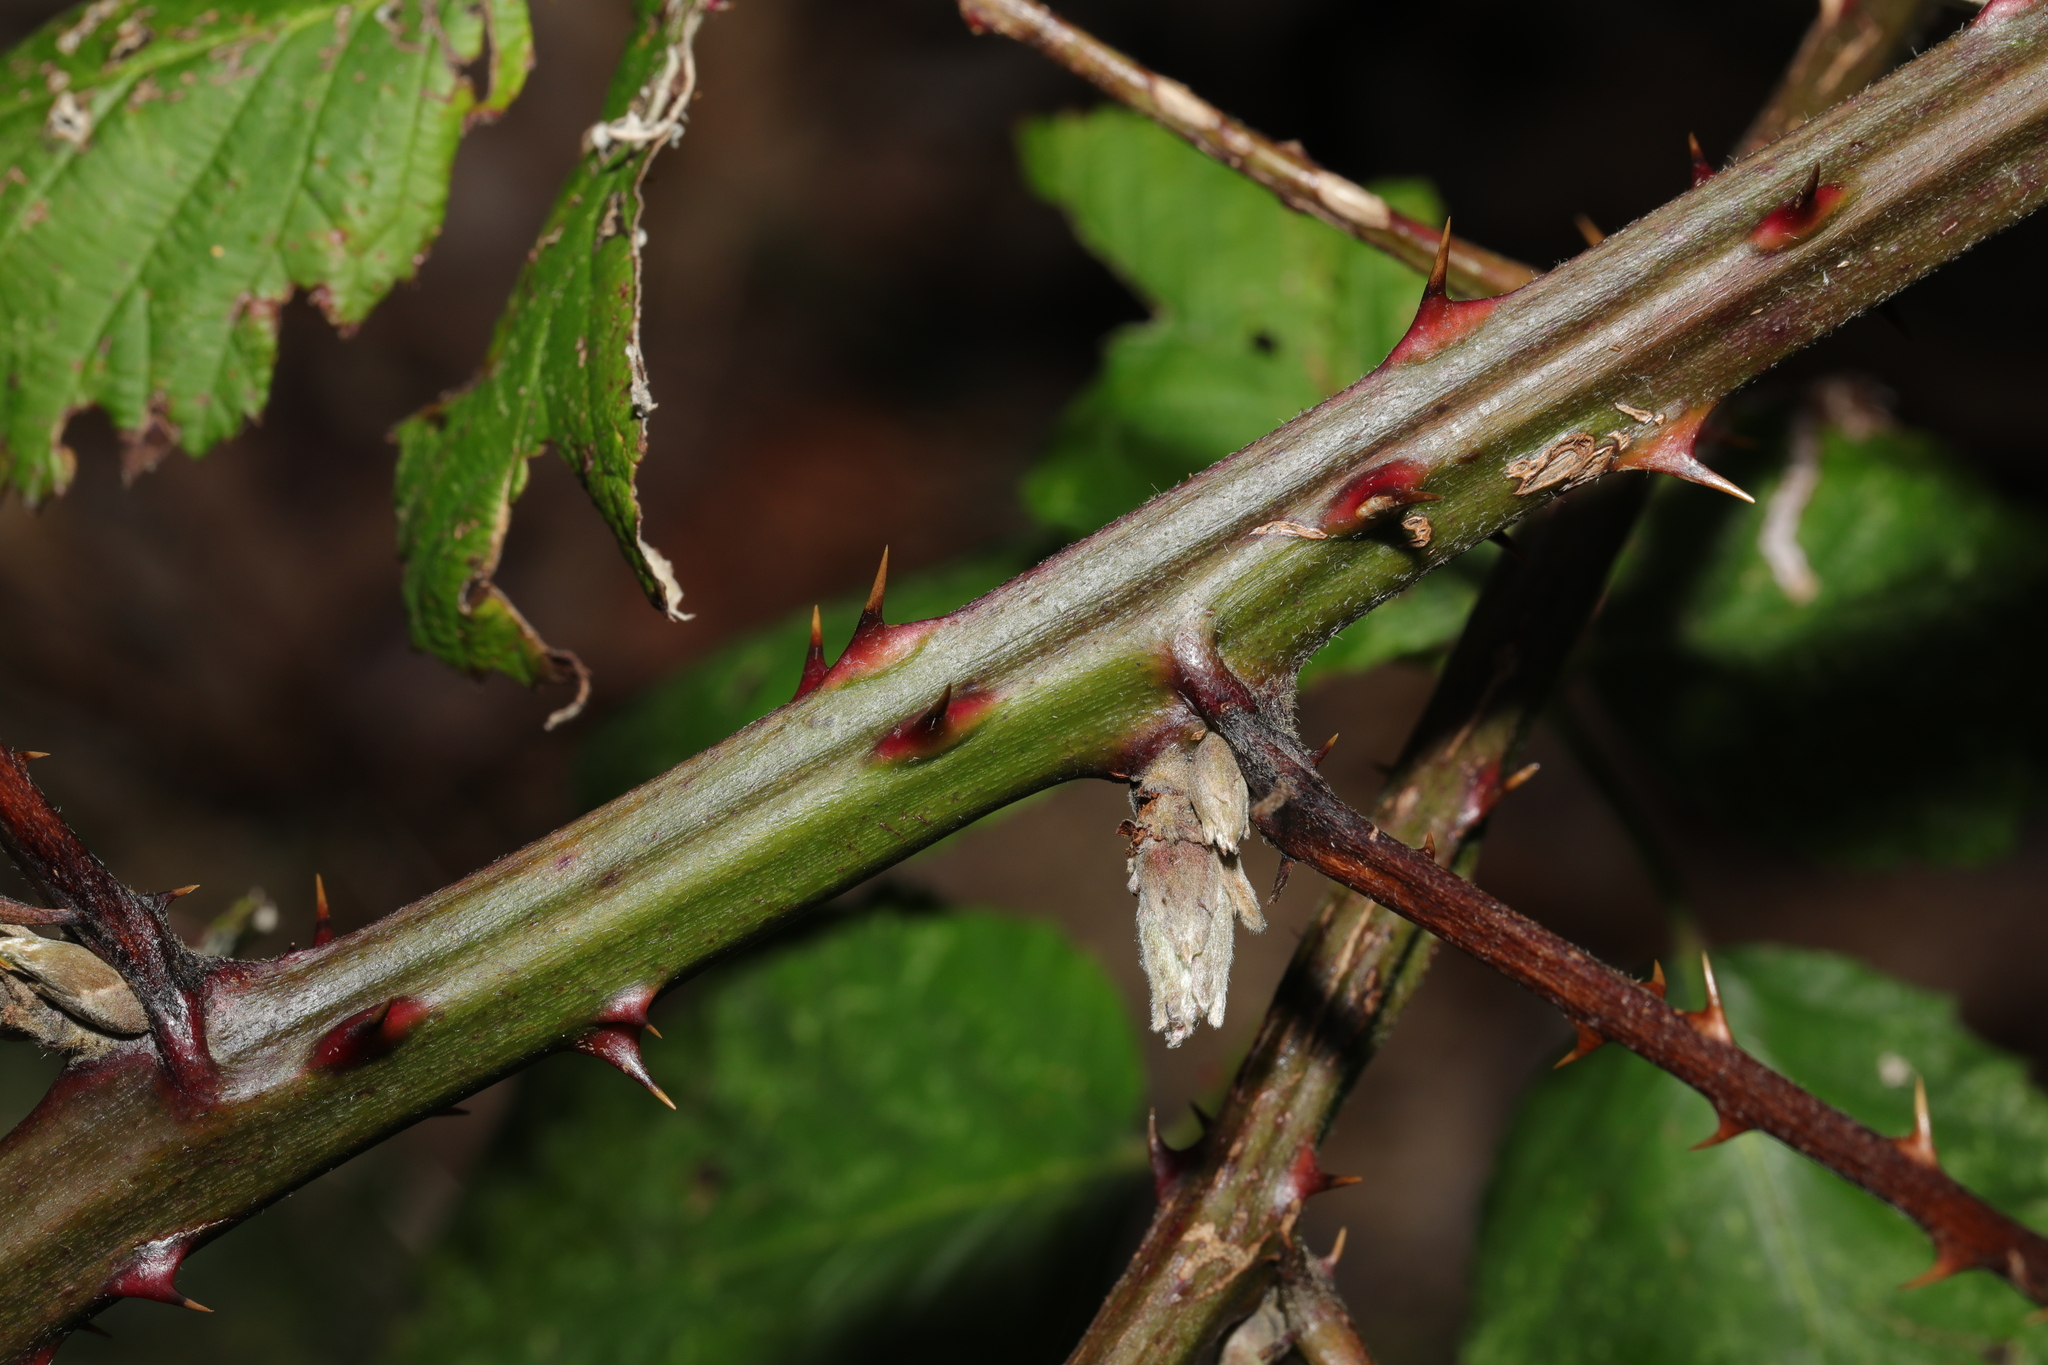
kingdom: Plantae
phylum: Tracheophyta
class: Magnoliopsida
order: Rosales
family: Rosaceae
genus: Rubus
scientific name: Rubus armeniacus
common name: Himalayan blackberry
